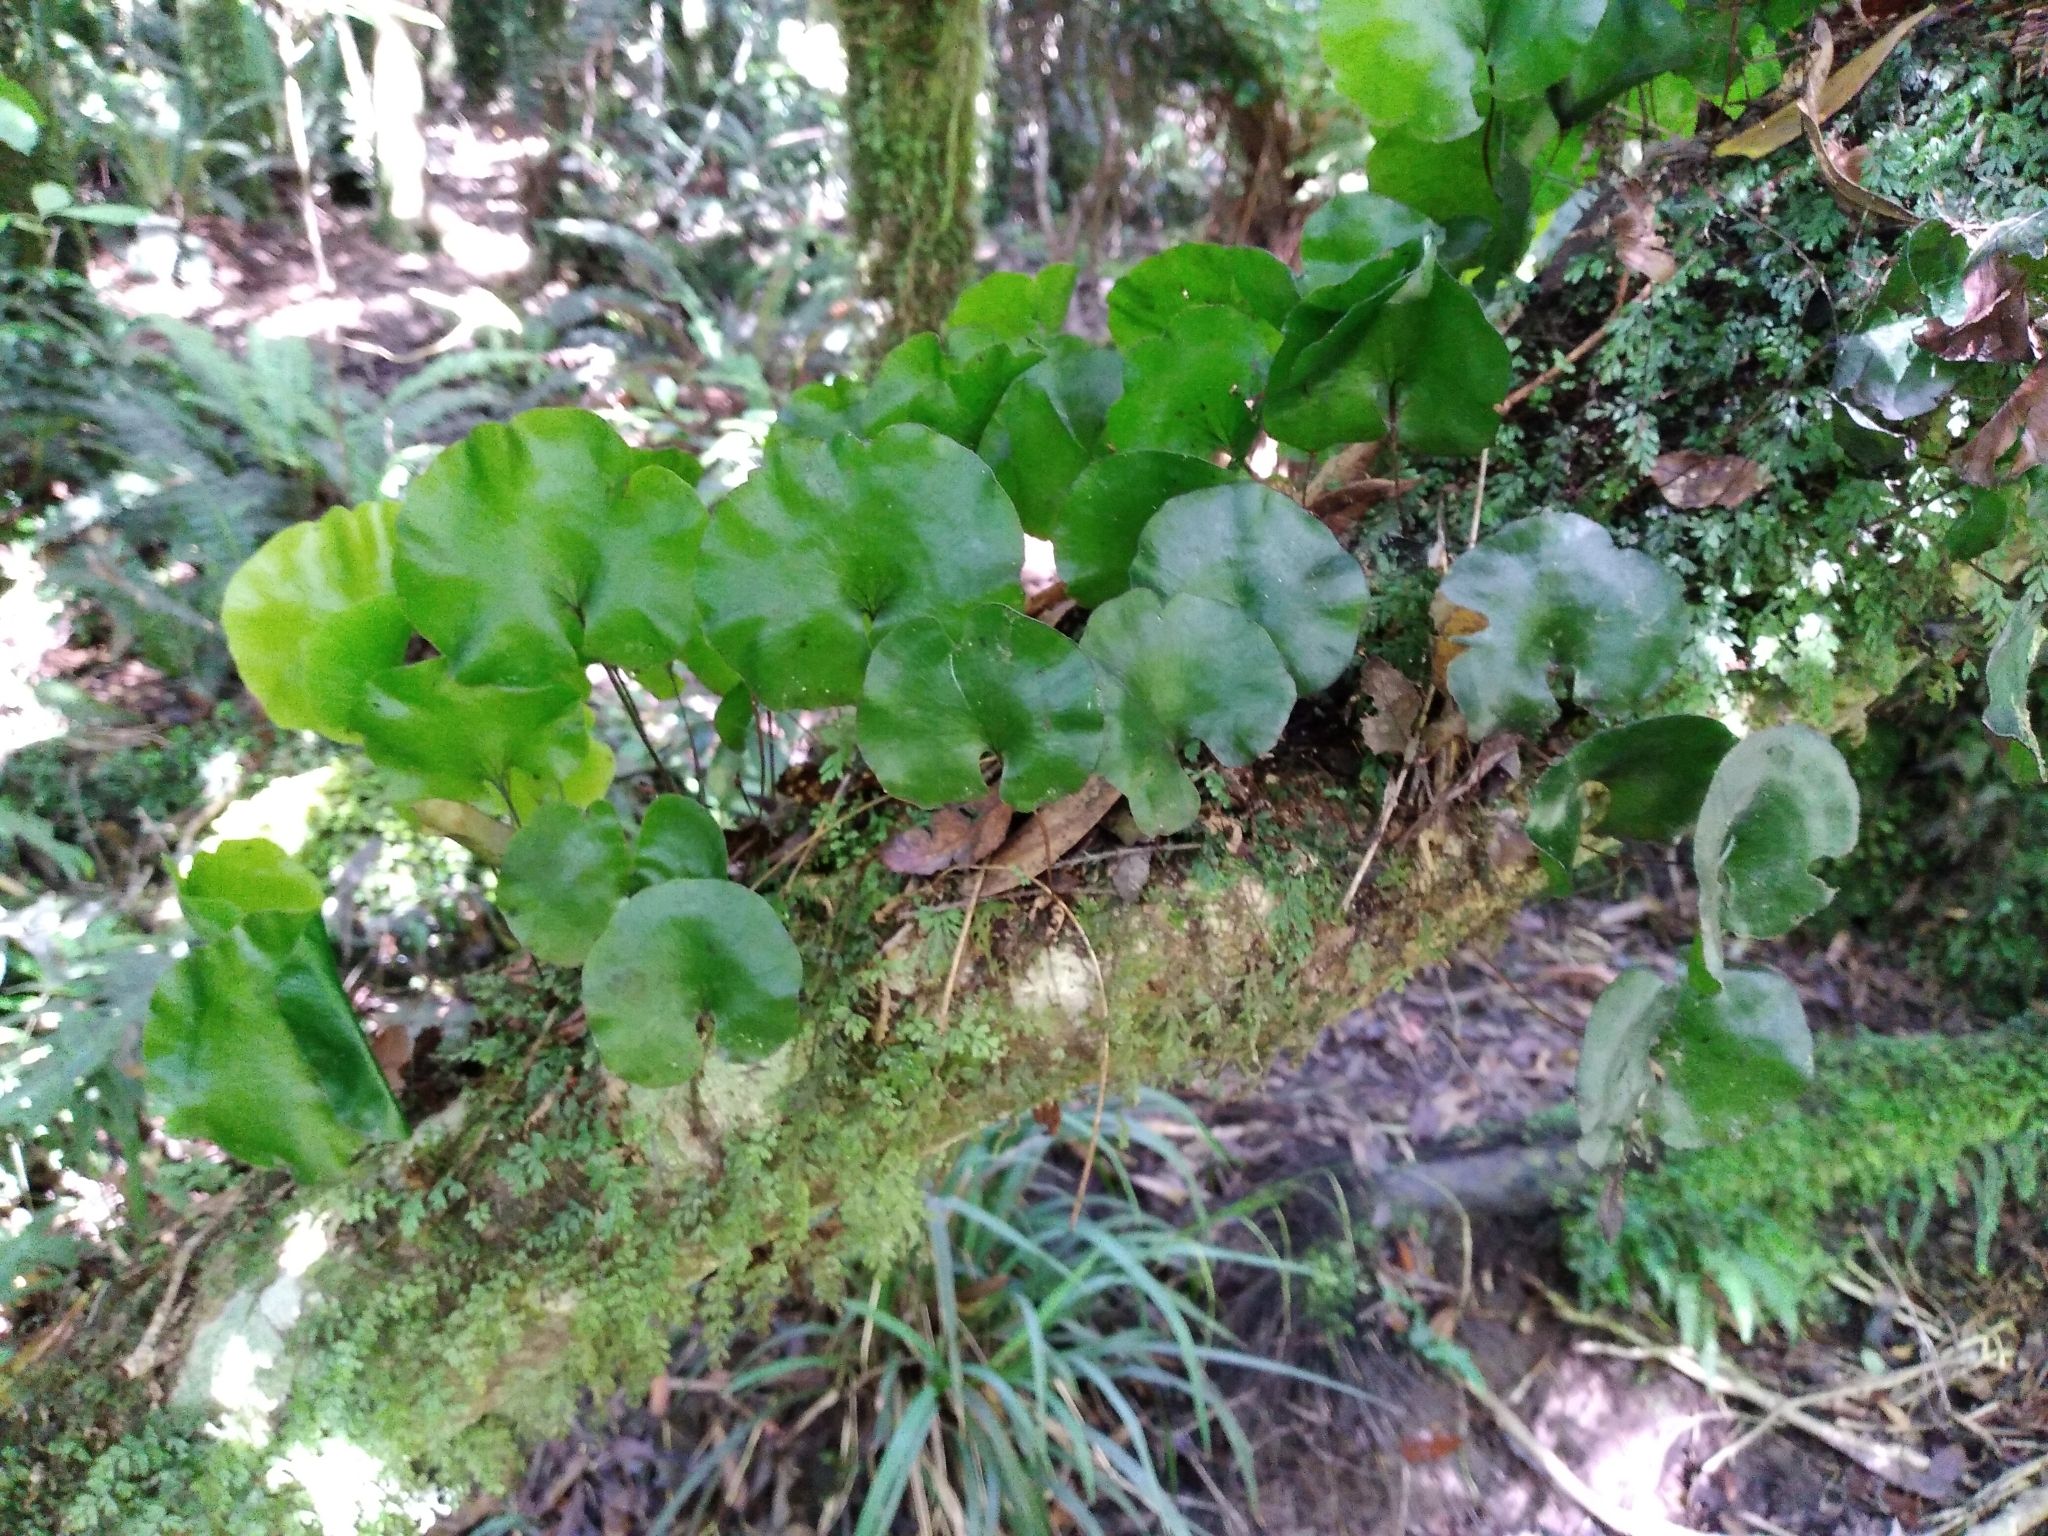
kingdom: Plantae
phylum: Tracheophyta
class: Polypodiopsida
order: Hymenophyllales
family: Hymenophyllaceae
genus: Hymenophyllum
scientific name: Hymenophyllum nephrophyllum
